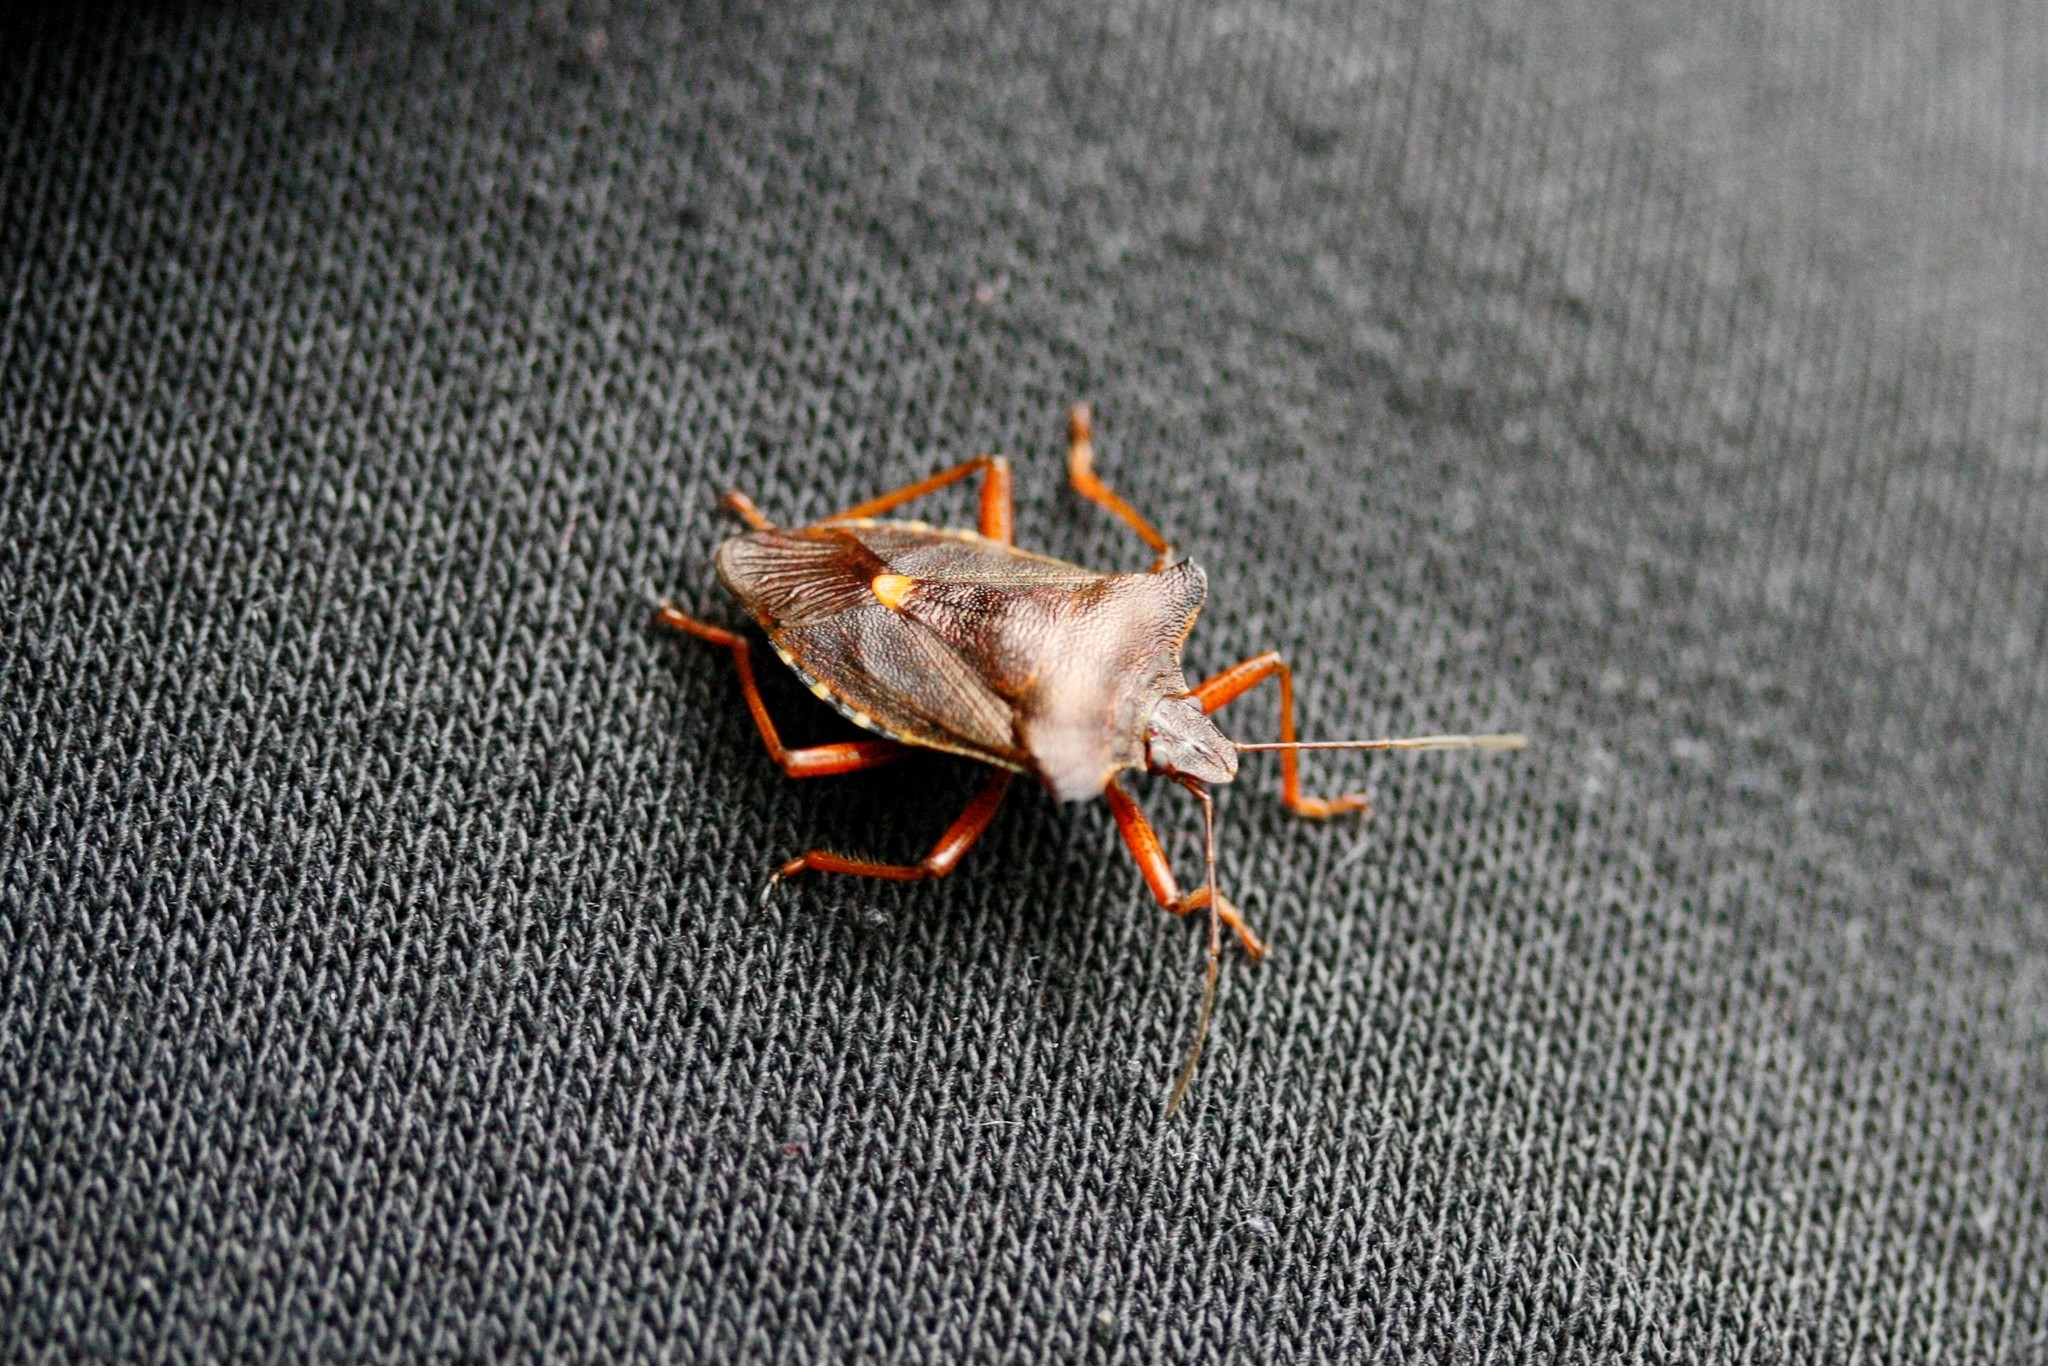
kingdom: Animalia
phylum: Arthropoda
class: Insecta
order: Hemiptera
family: Pentatomidae
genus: Pentatoma
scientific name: Pentatoma rufipes
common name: Forest bug
